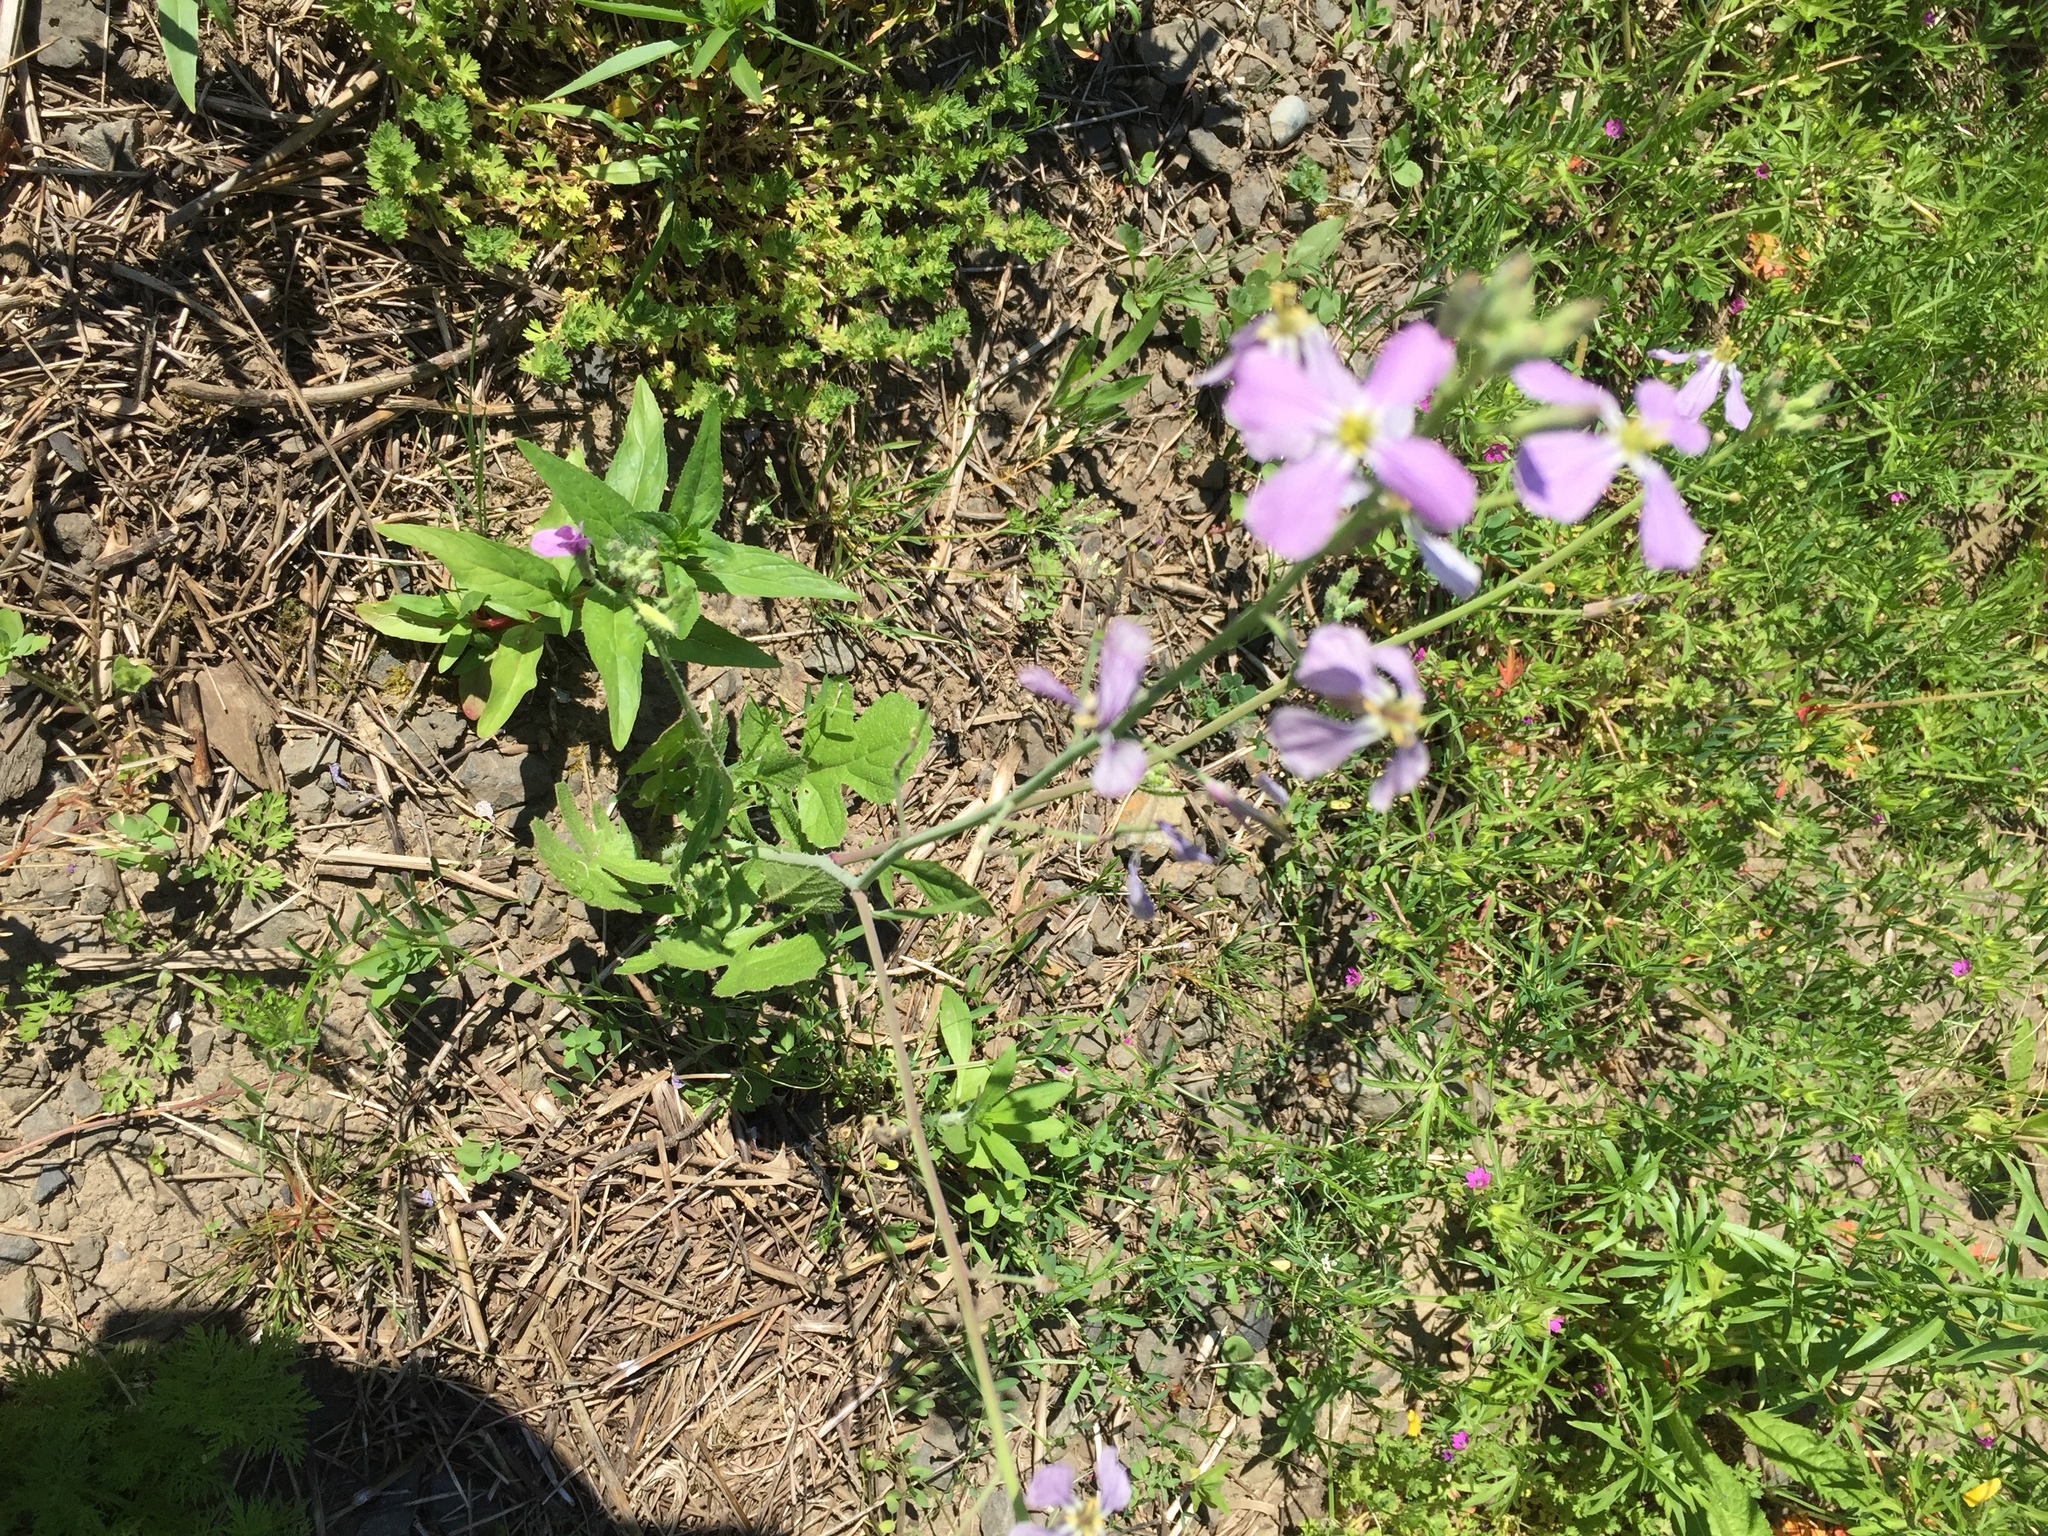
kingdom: Plantae
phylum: Tracheophyta
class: Magnoliopsida
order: Brassicales
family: Brassicaceae
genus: Raphanus
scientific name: Raphanus sativus
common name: Cultivated radish
